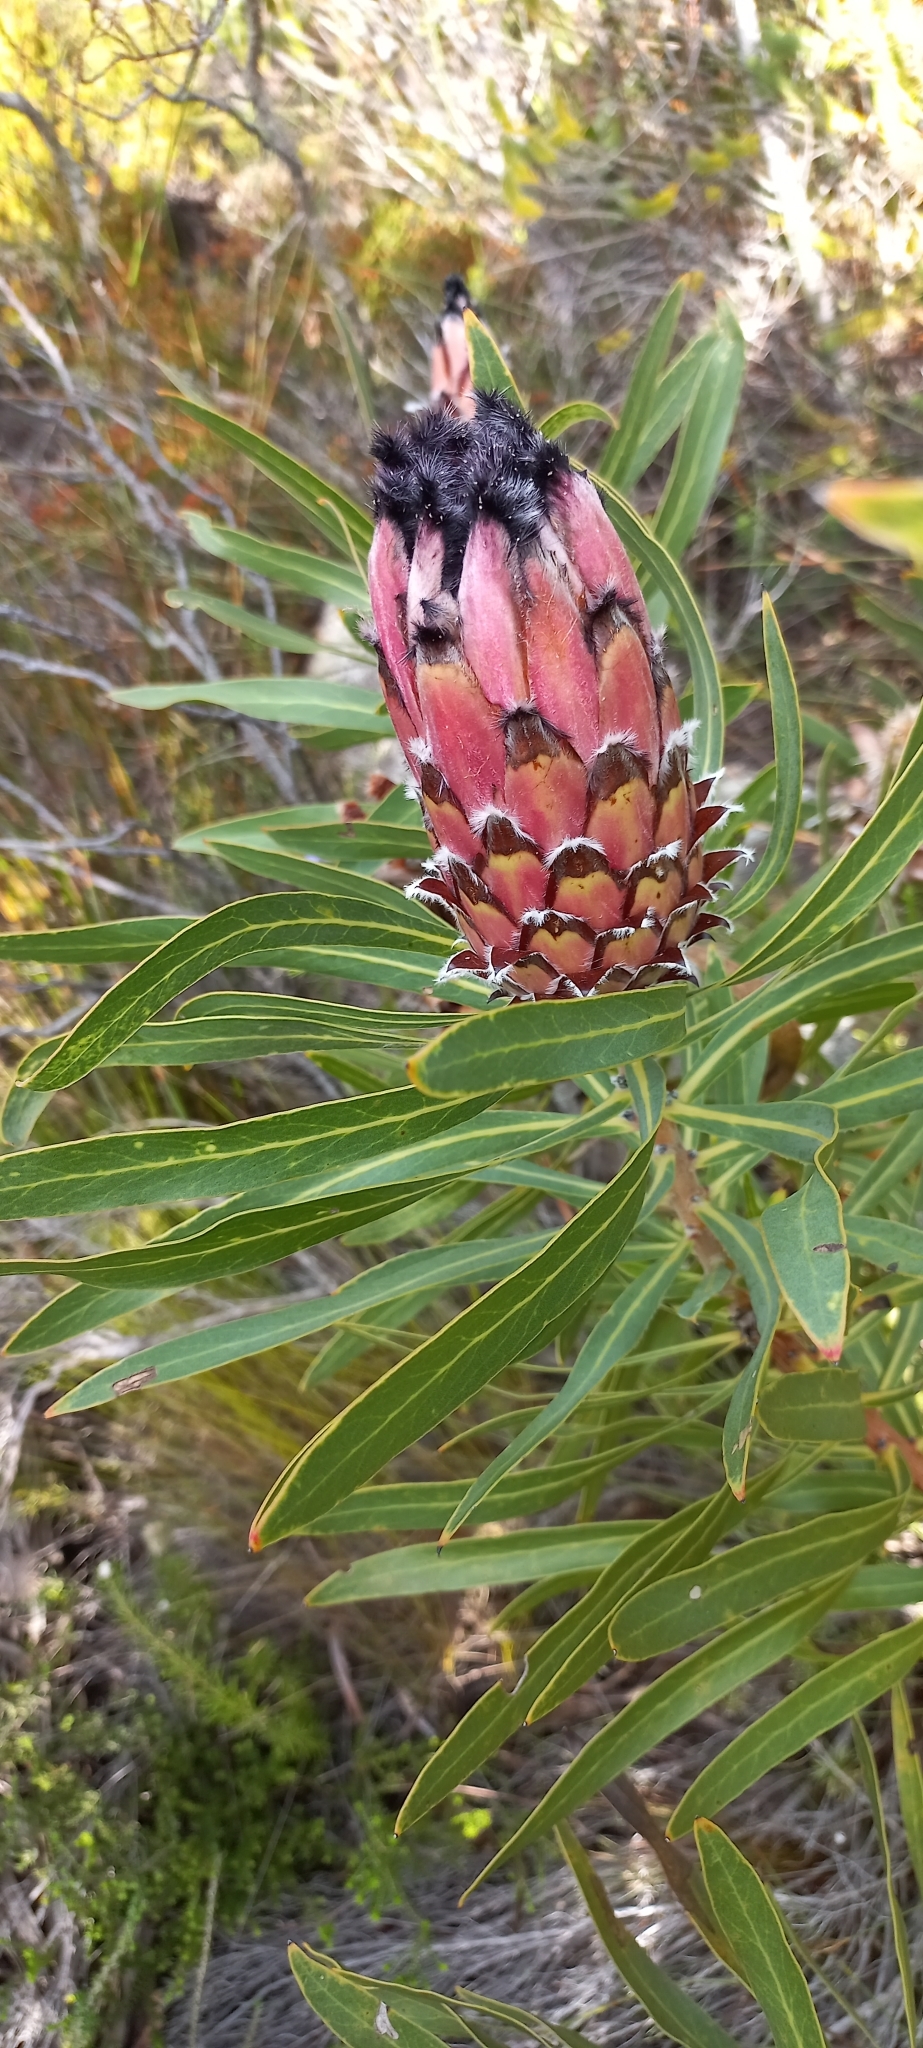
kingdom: Plantae
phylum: Tracheophyta
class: Magnoliopsida
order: Proteales
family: Proteaceae
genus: Protea
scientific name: Protea
